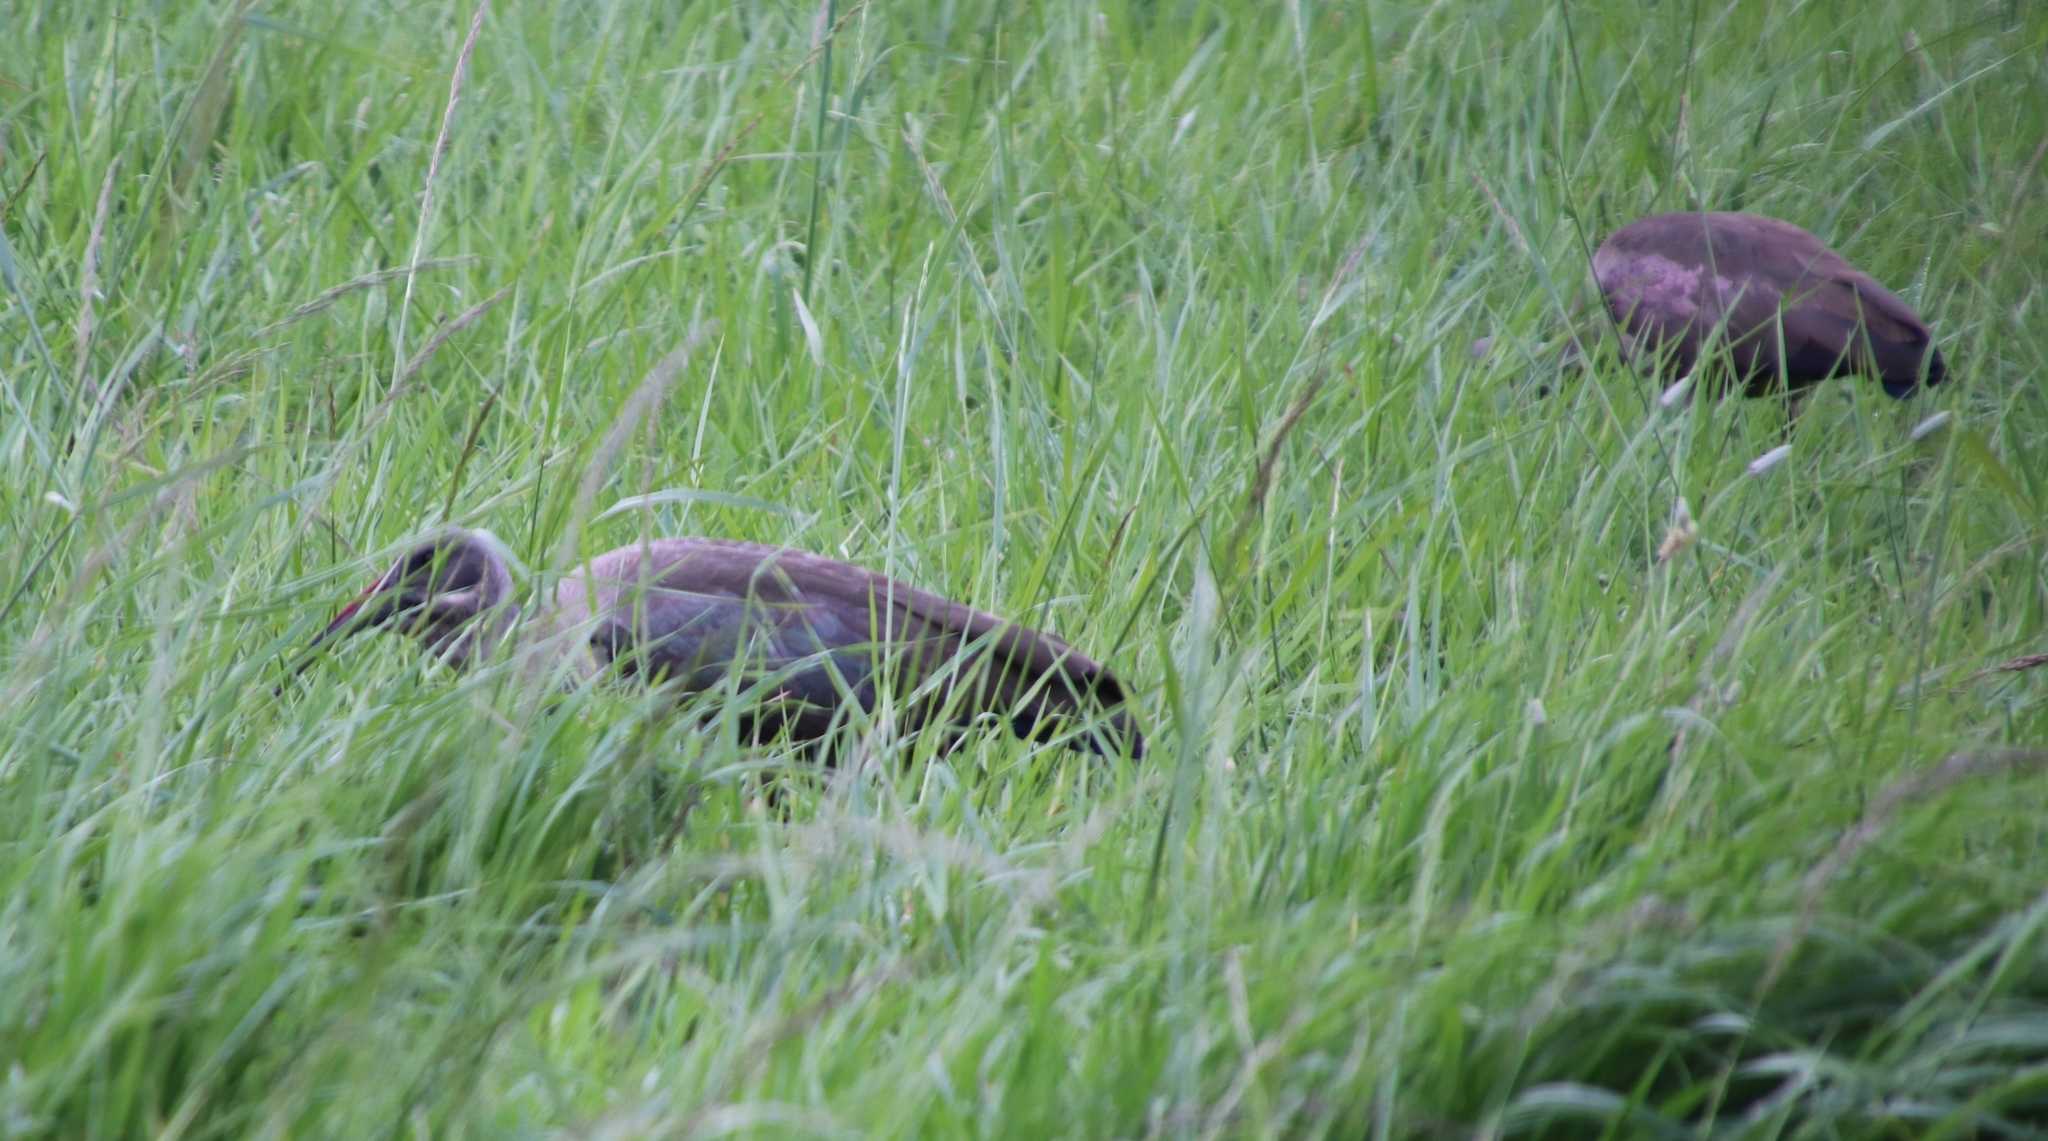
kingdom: Animalia
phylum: Chordata
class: Aves
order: Pelecaniformes
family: Threskiornithidae
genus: Bostrychia
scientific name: Bostrychia hagedash
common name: Hadada ibis
